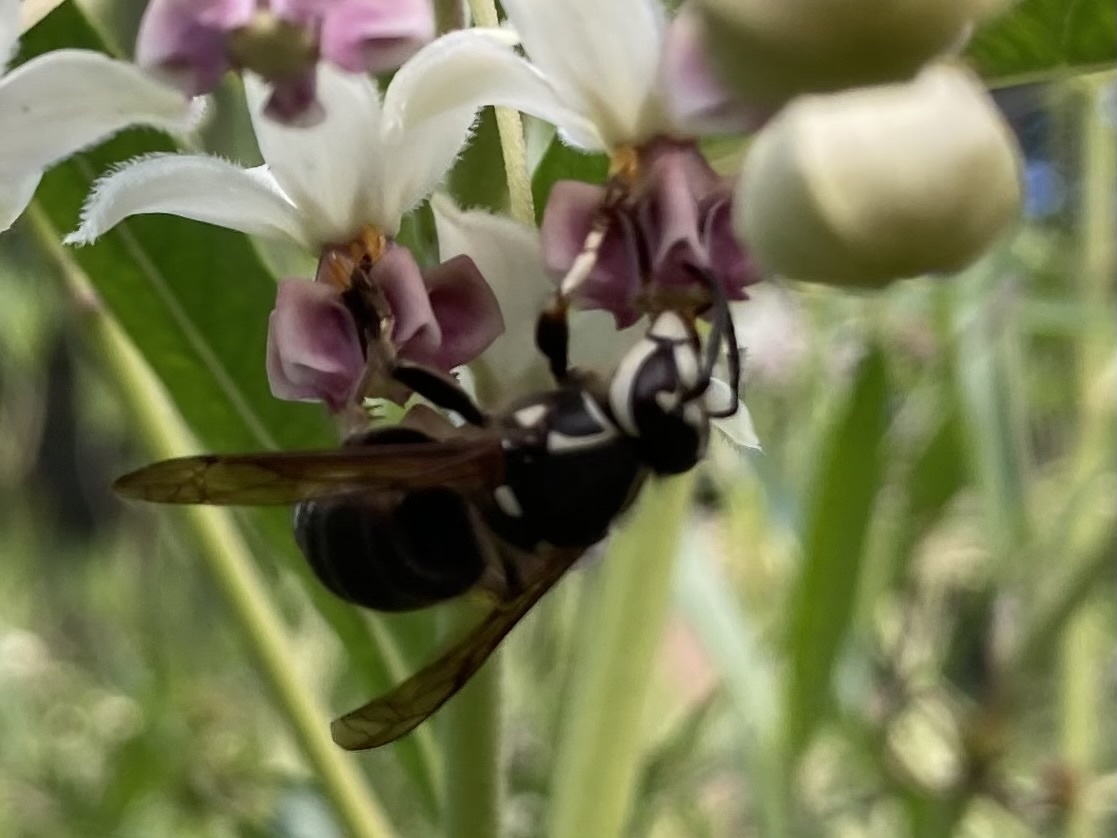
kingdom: Animalia
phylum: Arthropoda
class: Insecta
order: Hymenoptera
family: Vespidae
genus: Dolichovespula
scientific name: Dolichovespula maculata
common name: Bald-faced hornet
